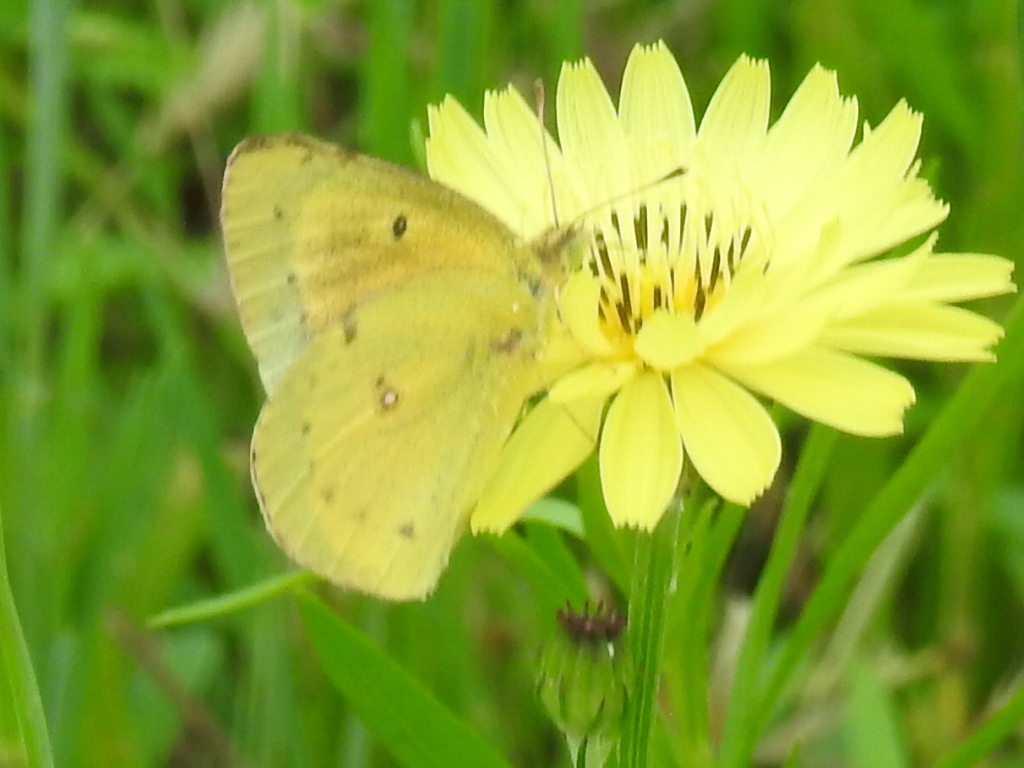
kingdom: Animalia
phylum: Arthropoda
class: Insecta
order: Lepidoptera
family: Pieridae
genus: Colias
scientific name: Colias eurytheme
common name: Alfalfa butterfly
